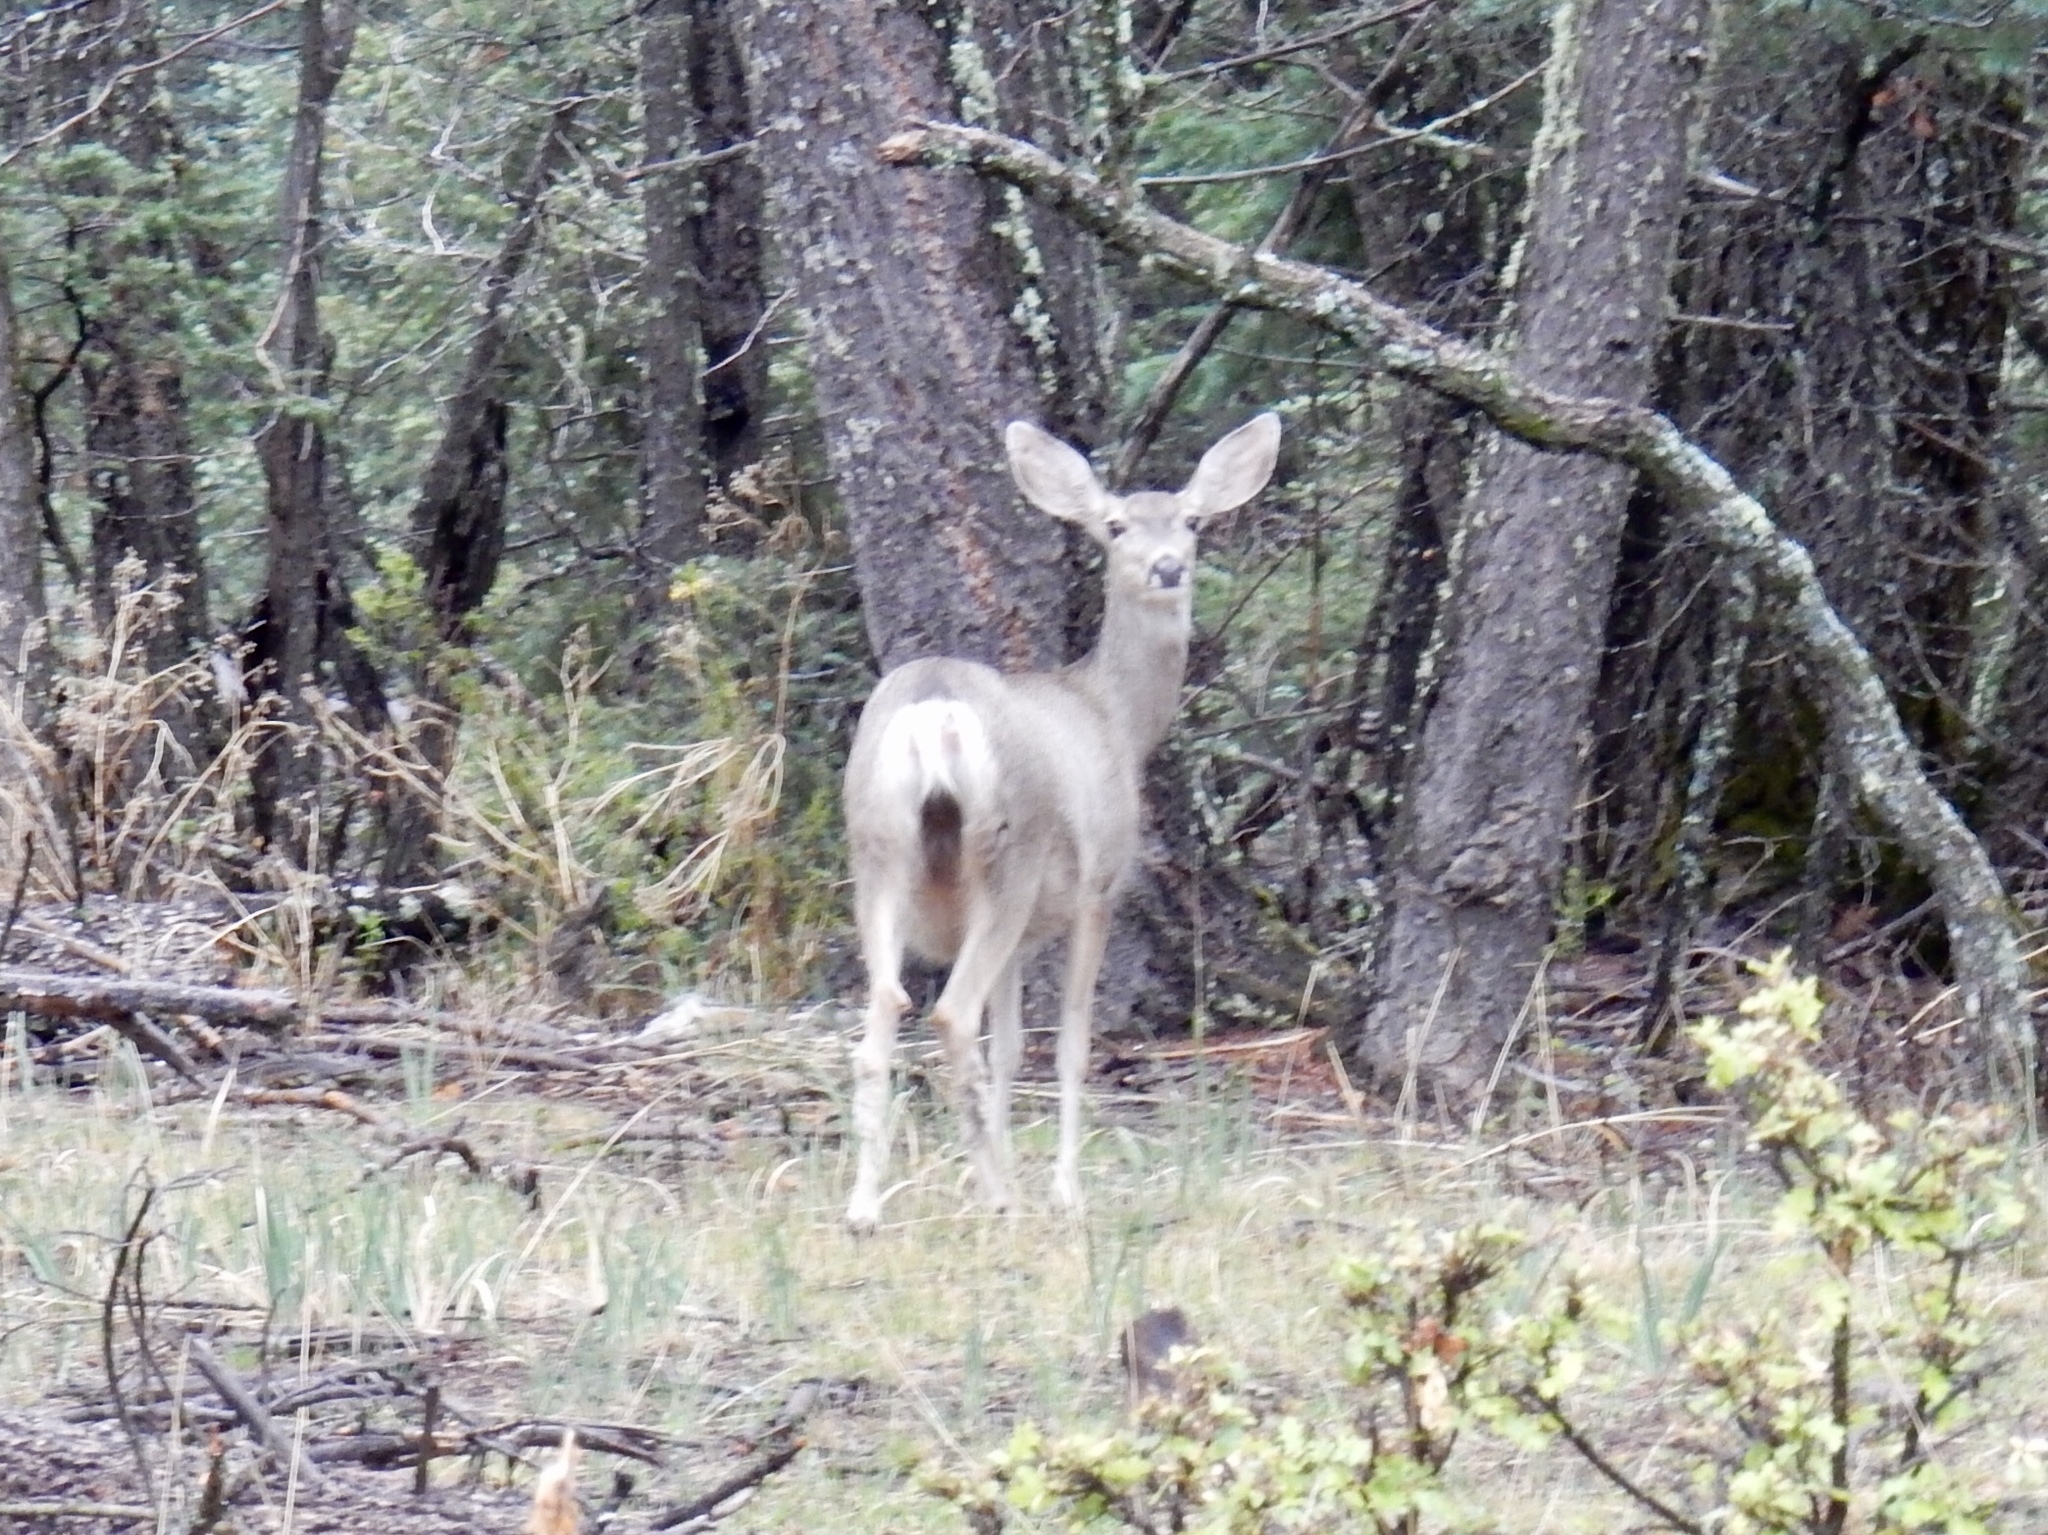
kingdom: Animalia
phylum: Chordata
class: Mammalia
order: Artiodactyla
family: Cervidae
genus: Odocoileus
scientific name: Odocoileus hemionus
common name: Mule deer
